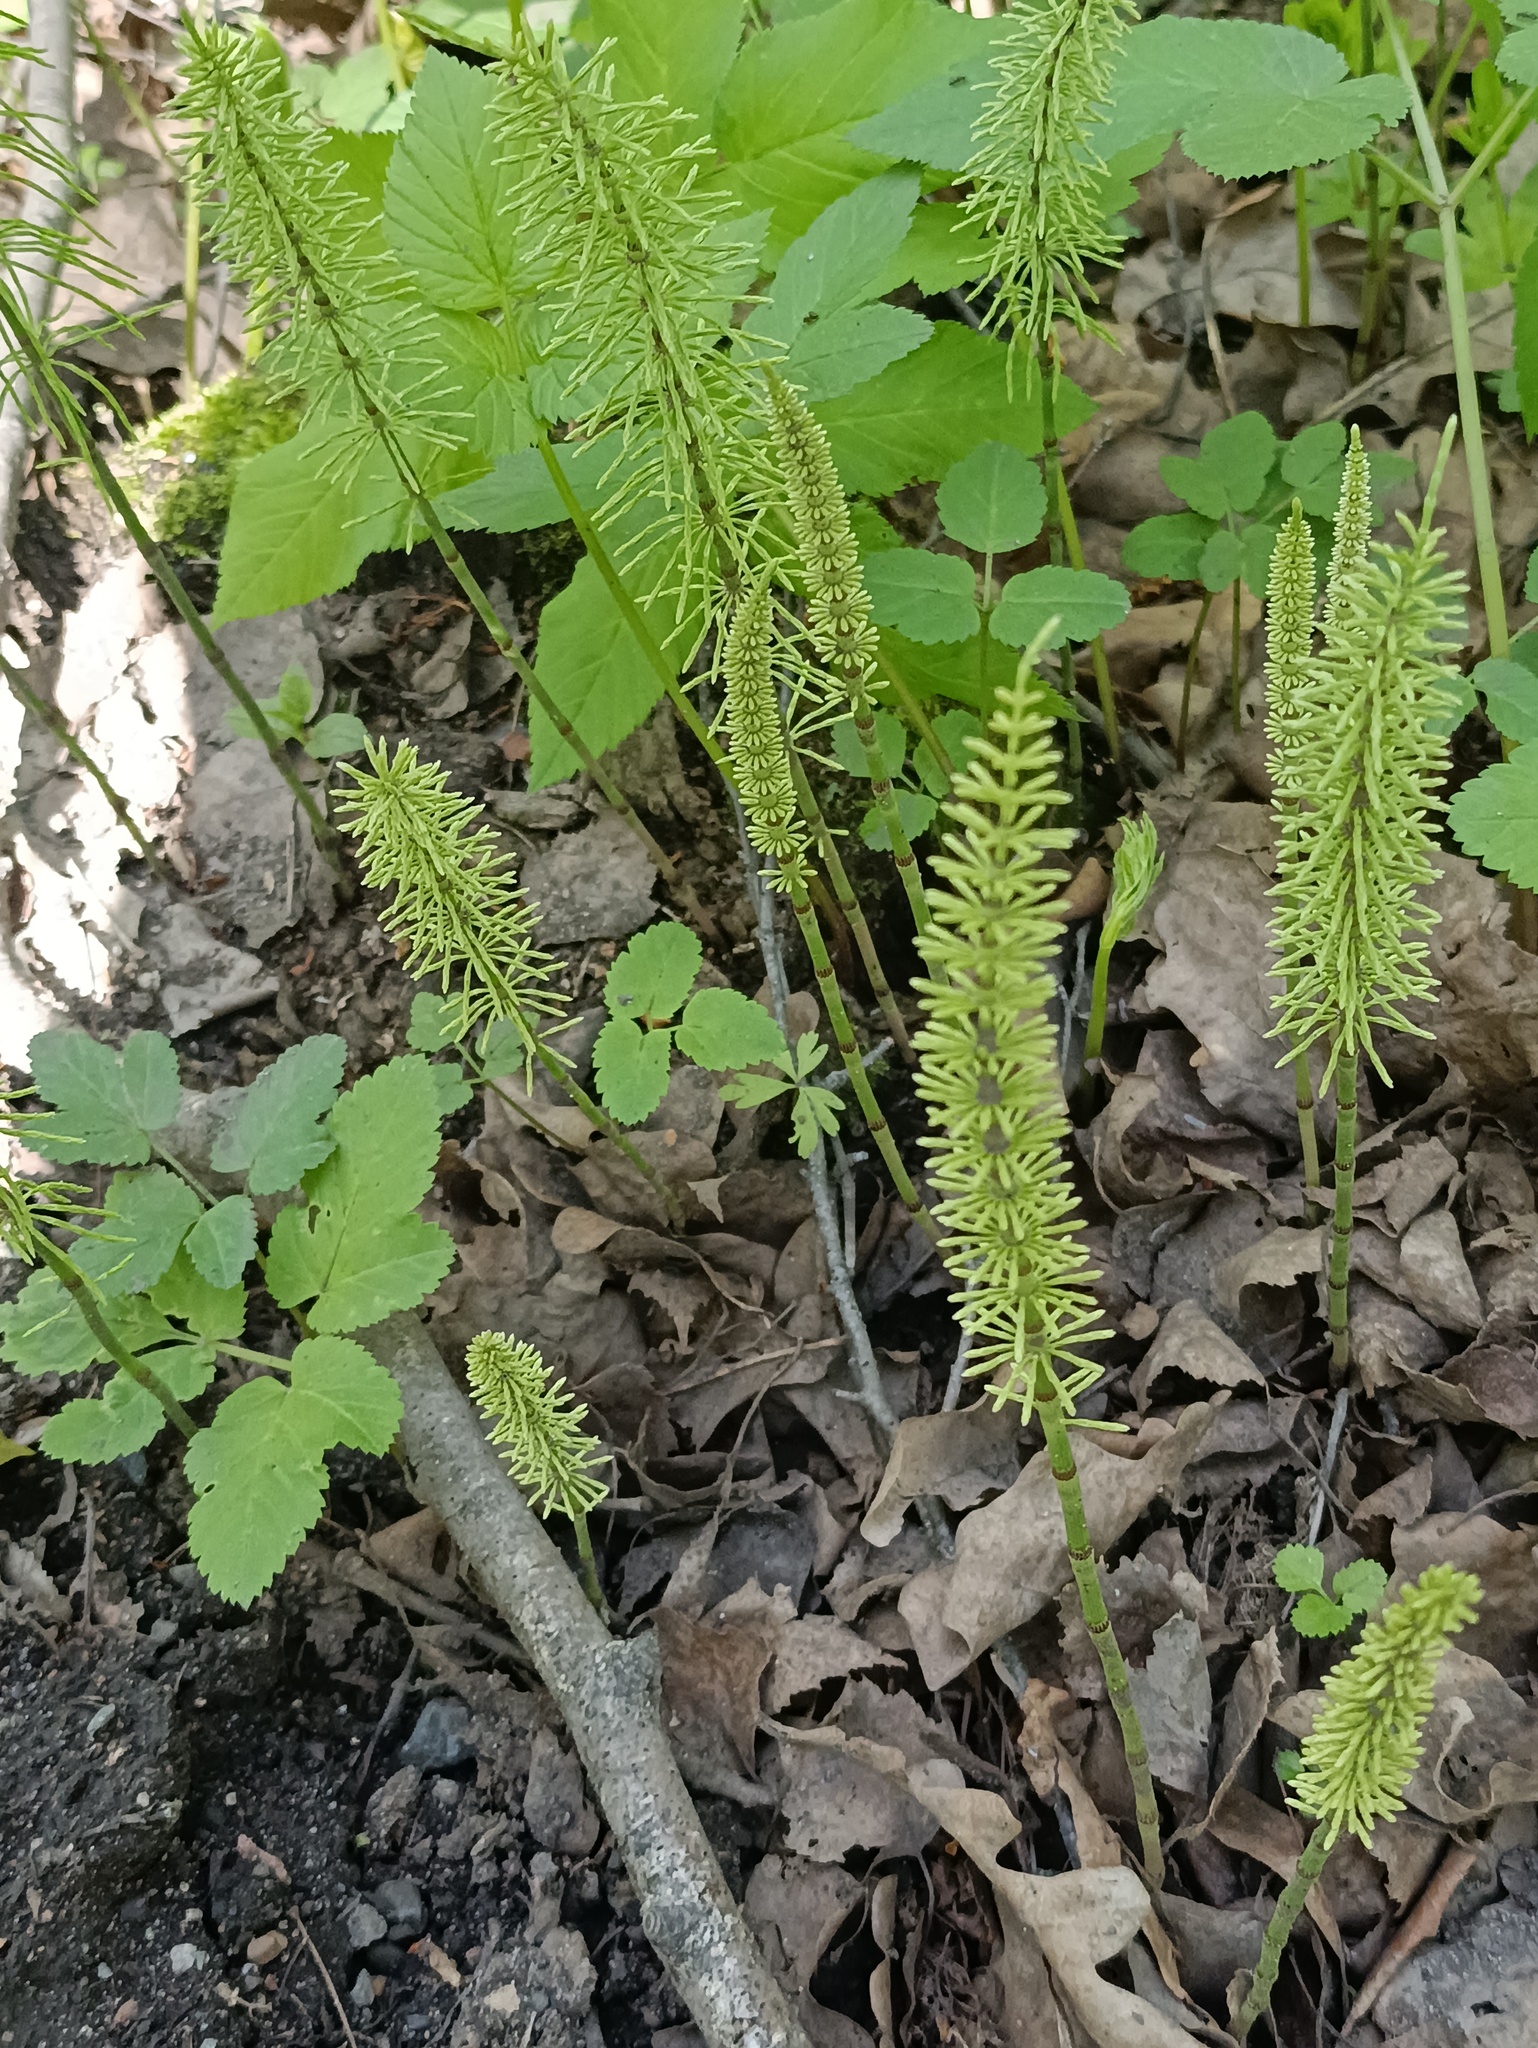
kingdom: Plantae
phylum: Tracheophyta
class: Polypodiopsida
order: Equisetales
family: Equisetaceae
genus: Equisetum
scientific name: Equisetum pratense
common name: Meadow horsetail
